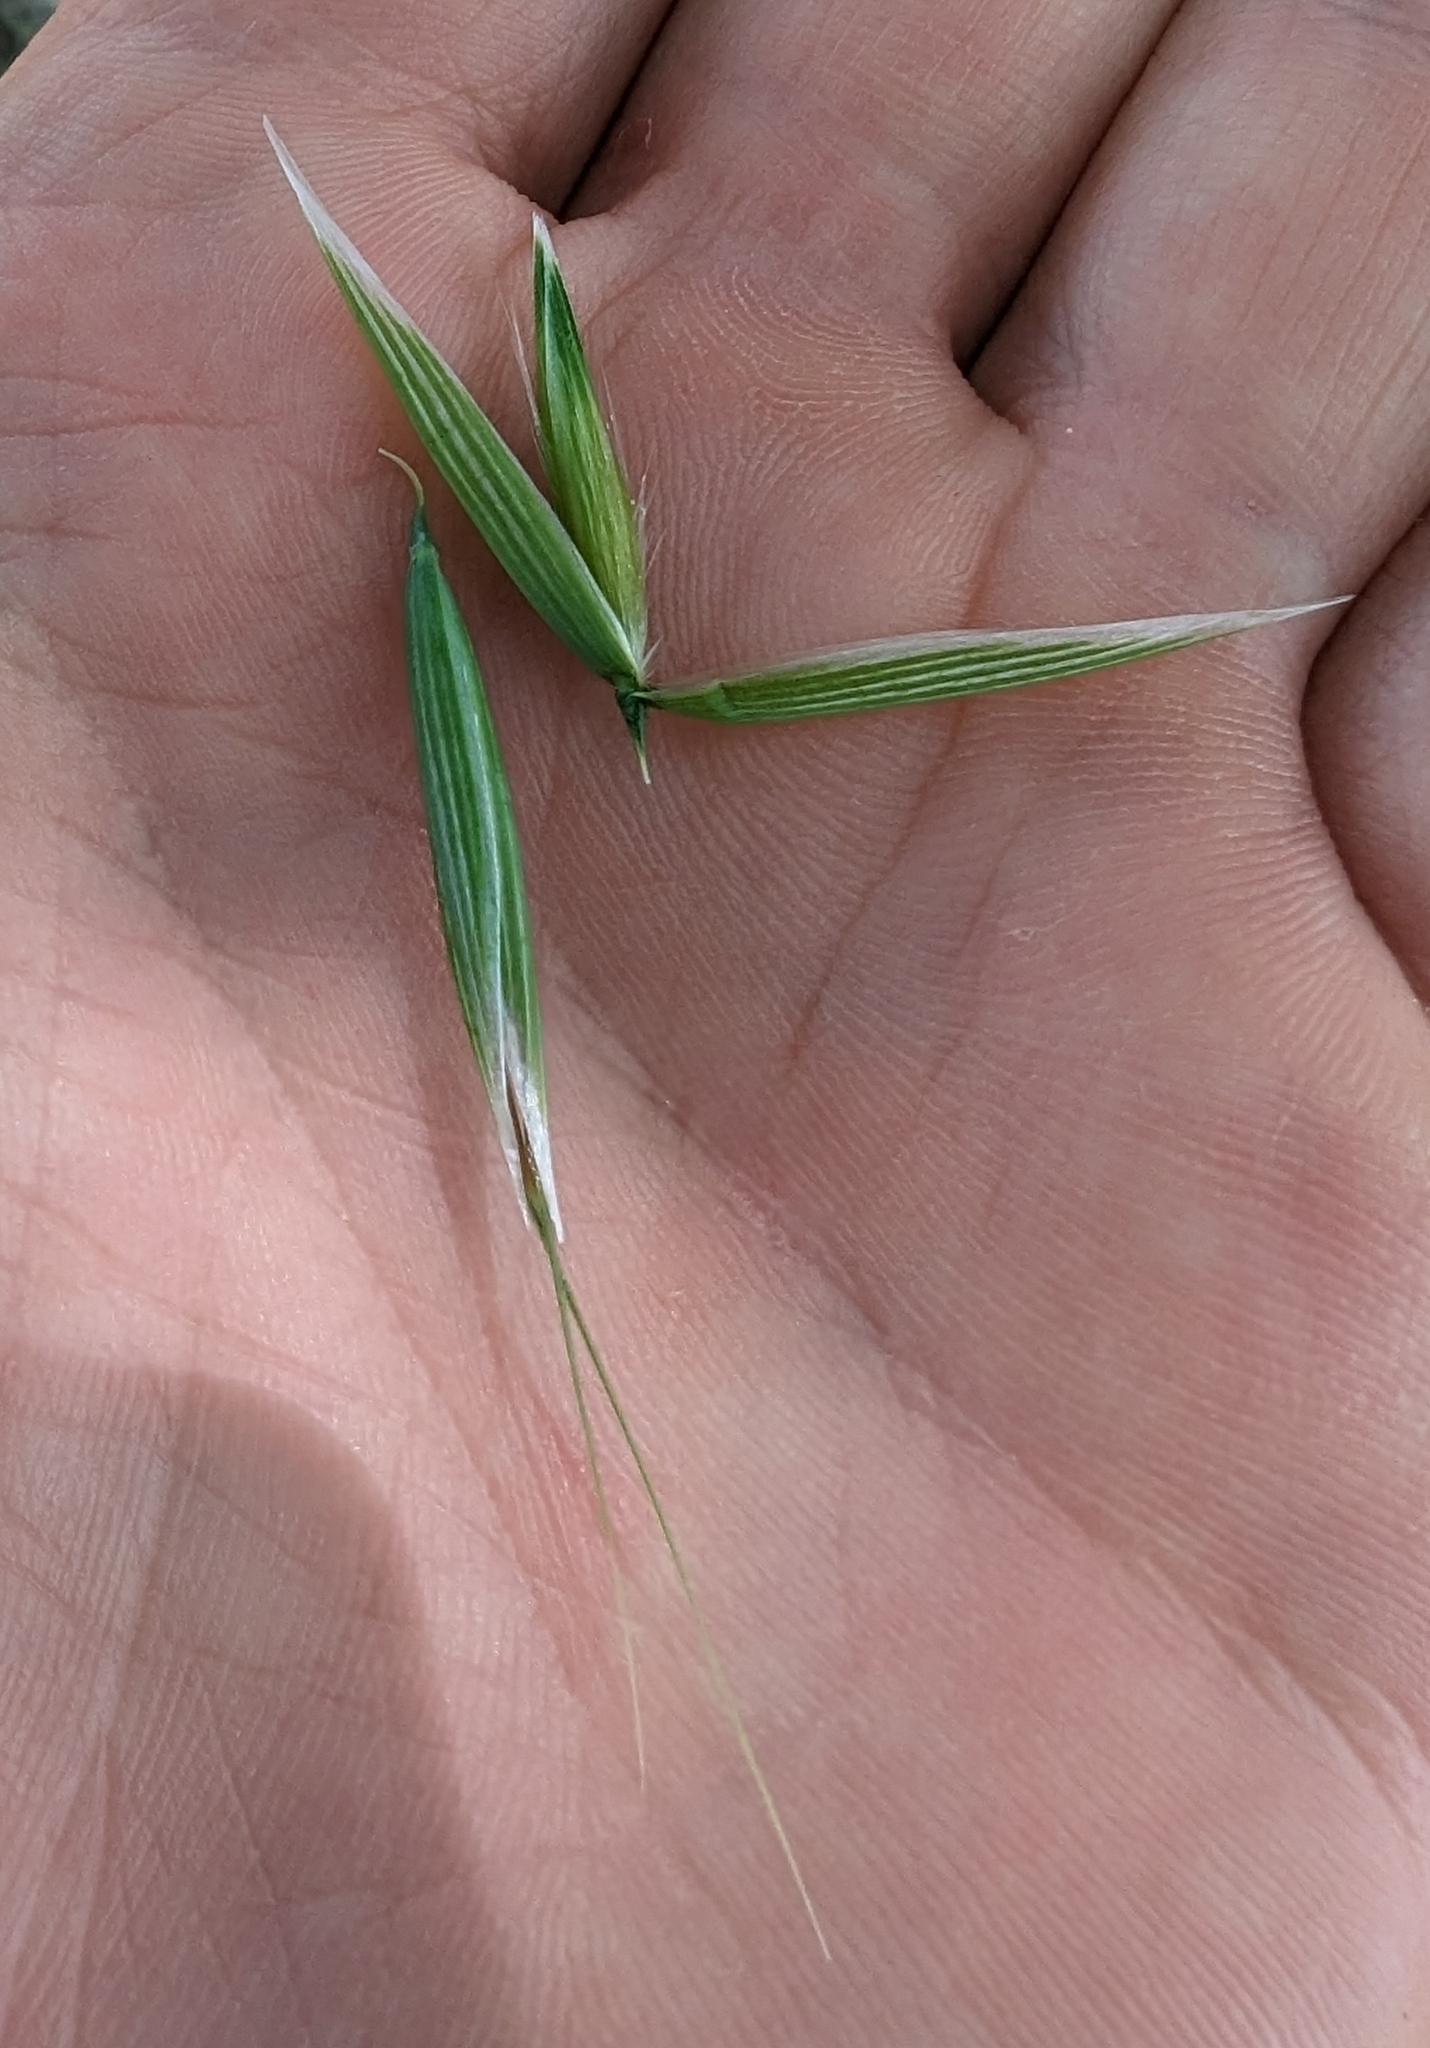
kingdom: Plantae
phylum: Tracheophyta
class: Liliopsida
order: Poales
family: Poaceae
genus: Avena
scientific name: Avena fatua
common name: Wild oat
